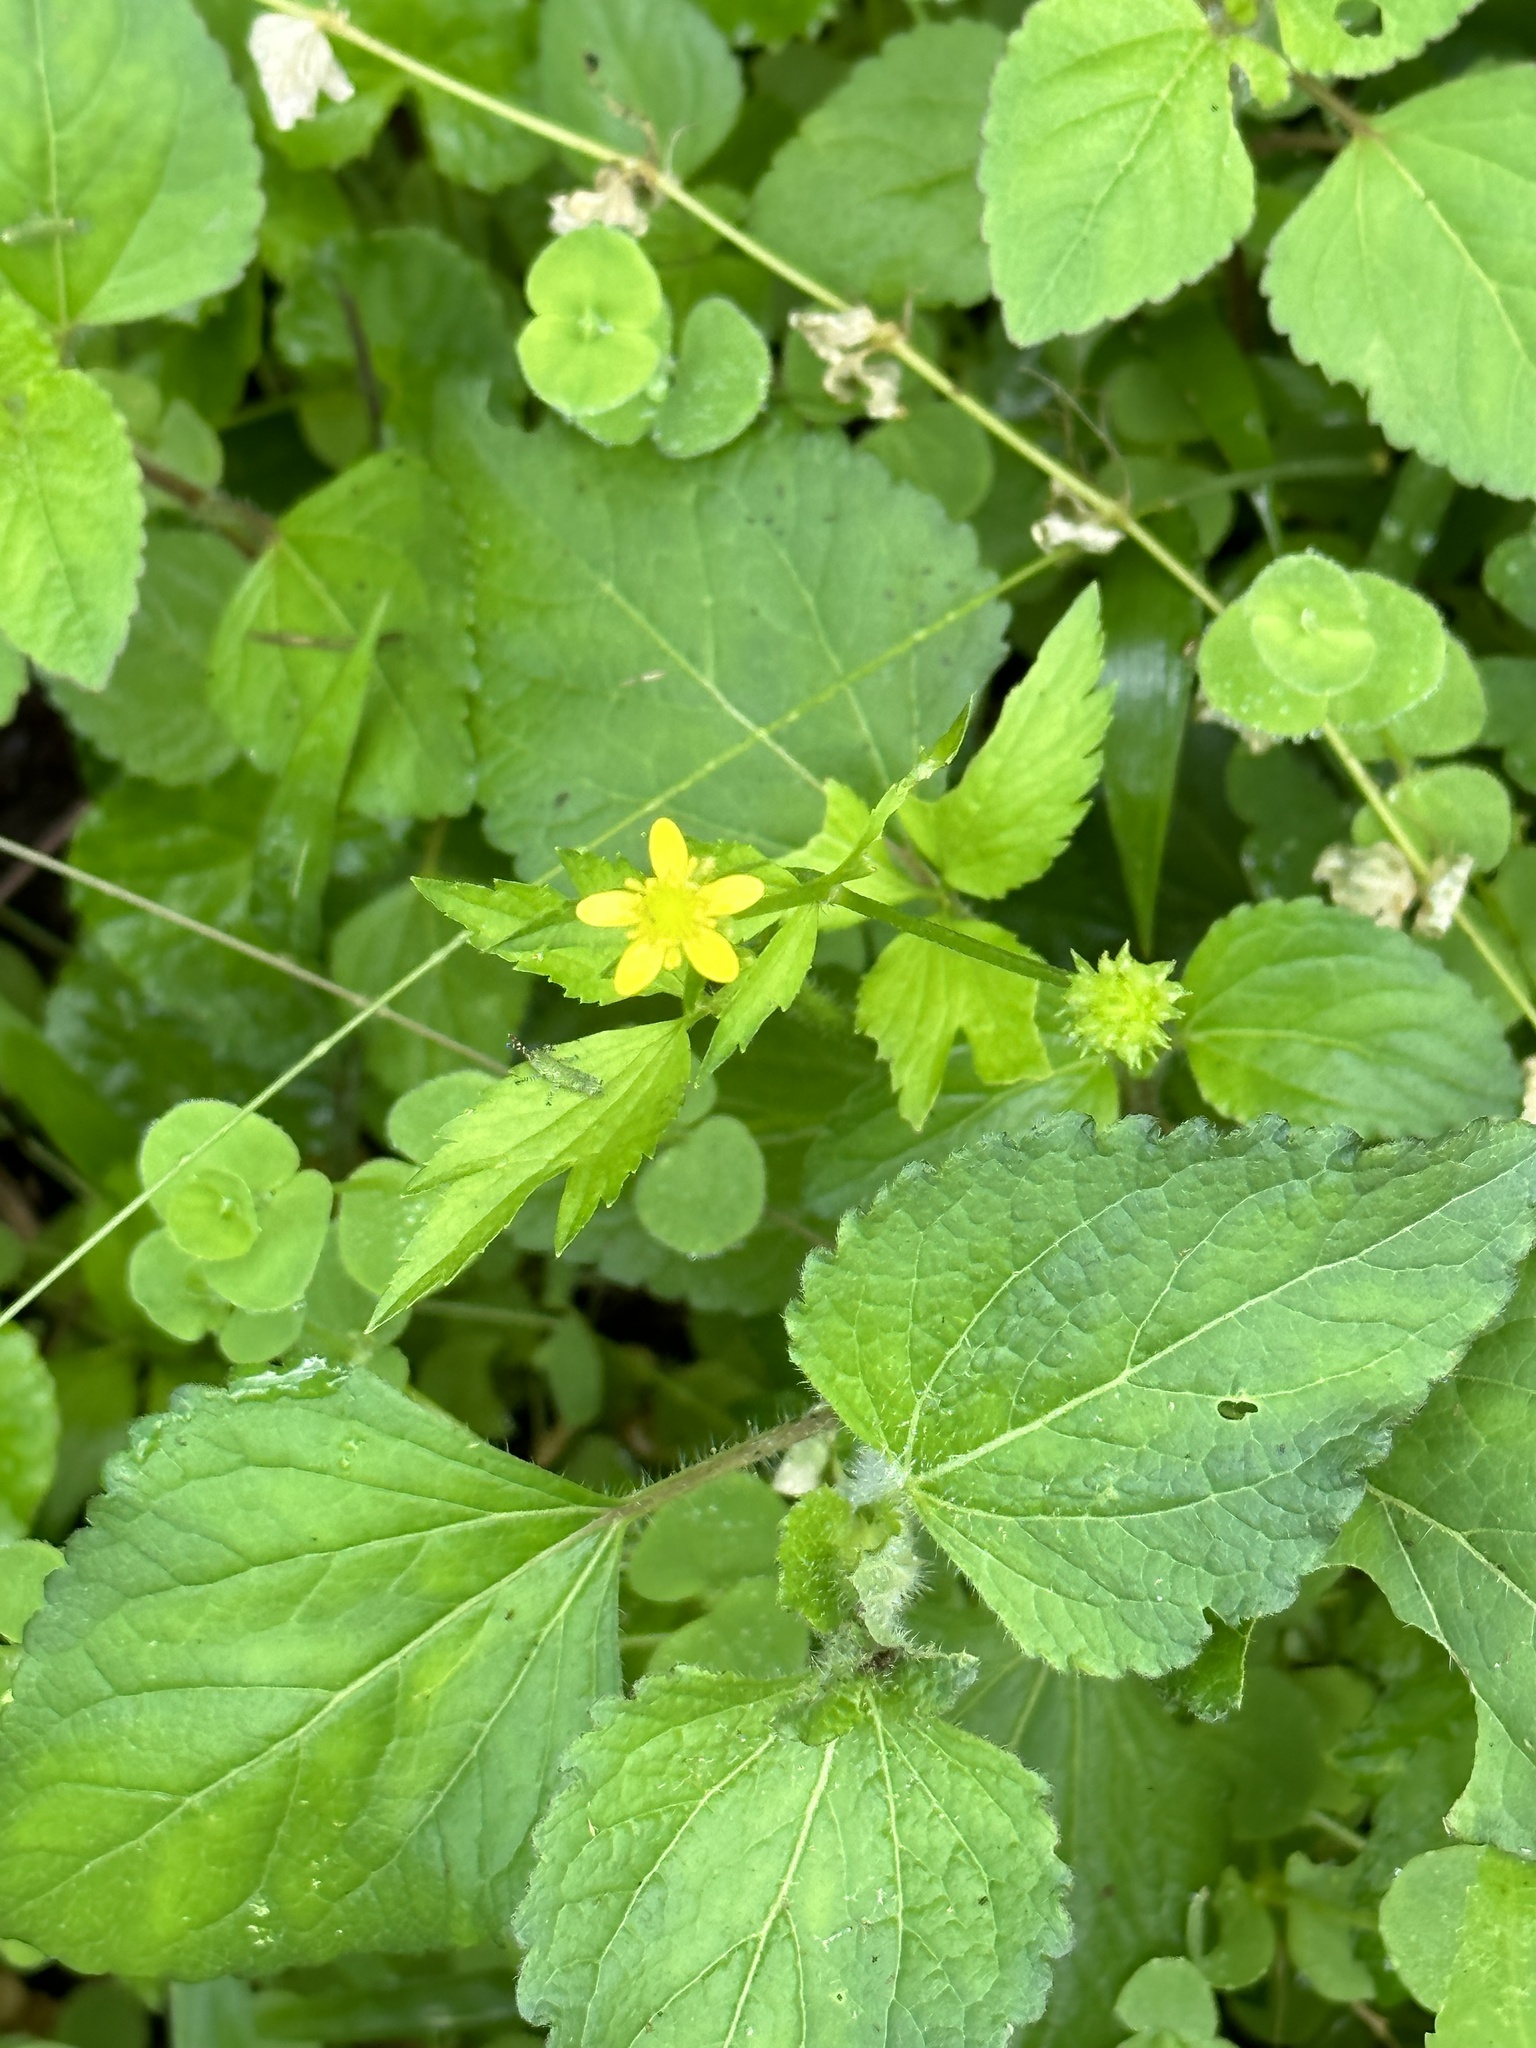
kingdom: Plantae
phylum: Tracheophyta
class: Magnoliopsida
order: Ranunculales
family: Ranunculaceae
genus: Ranunculus
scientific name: Ranunculus silerifolius
